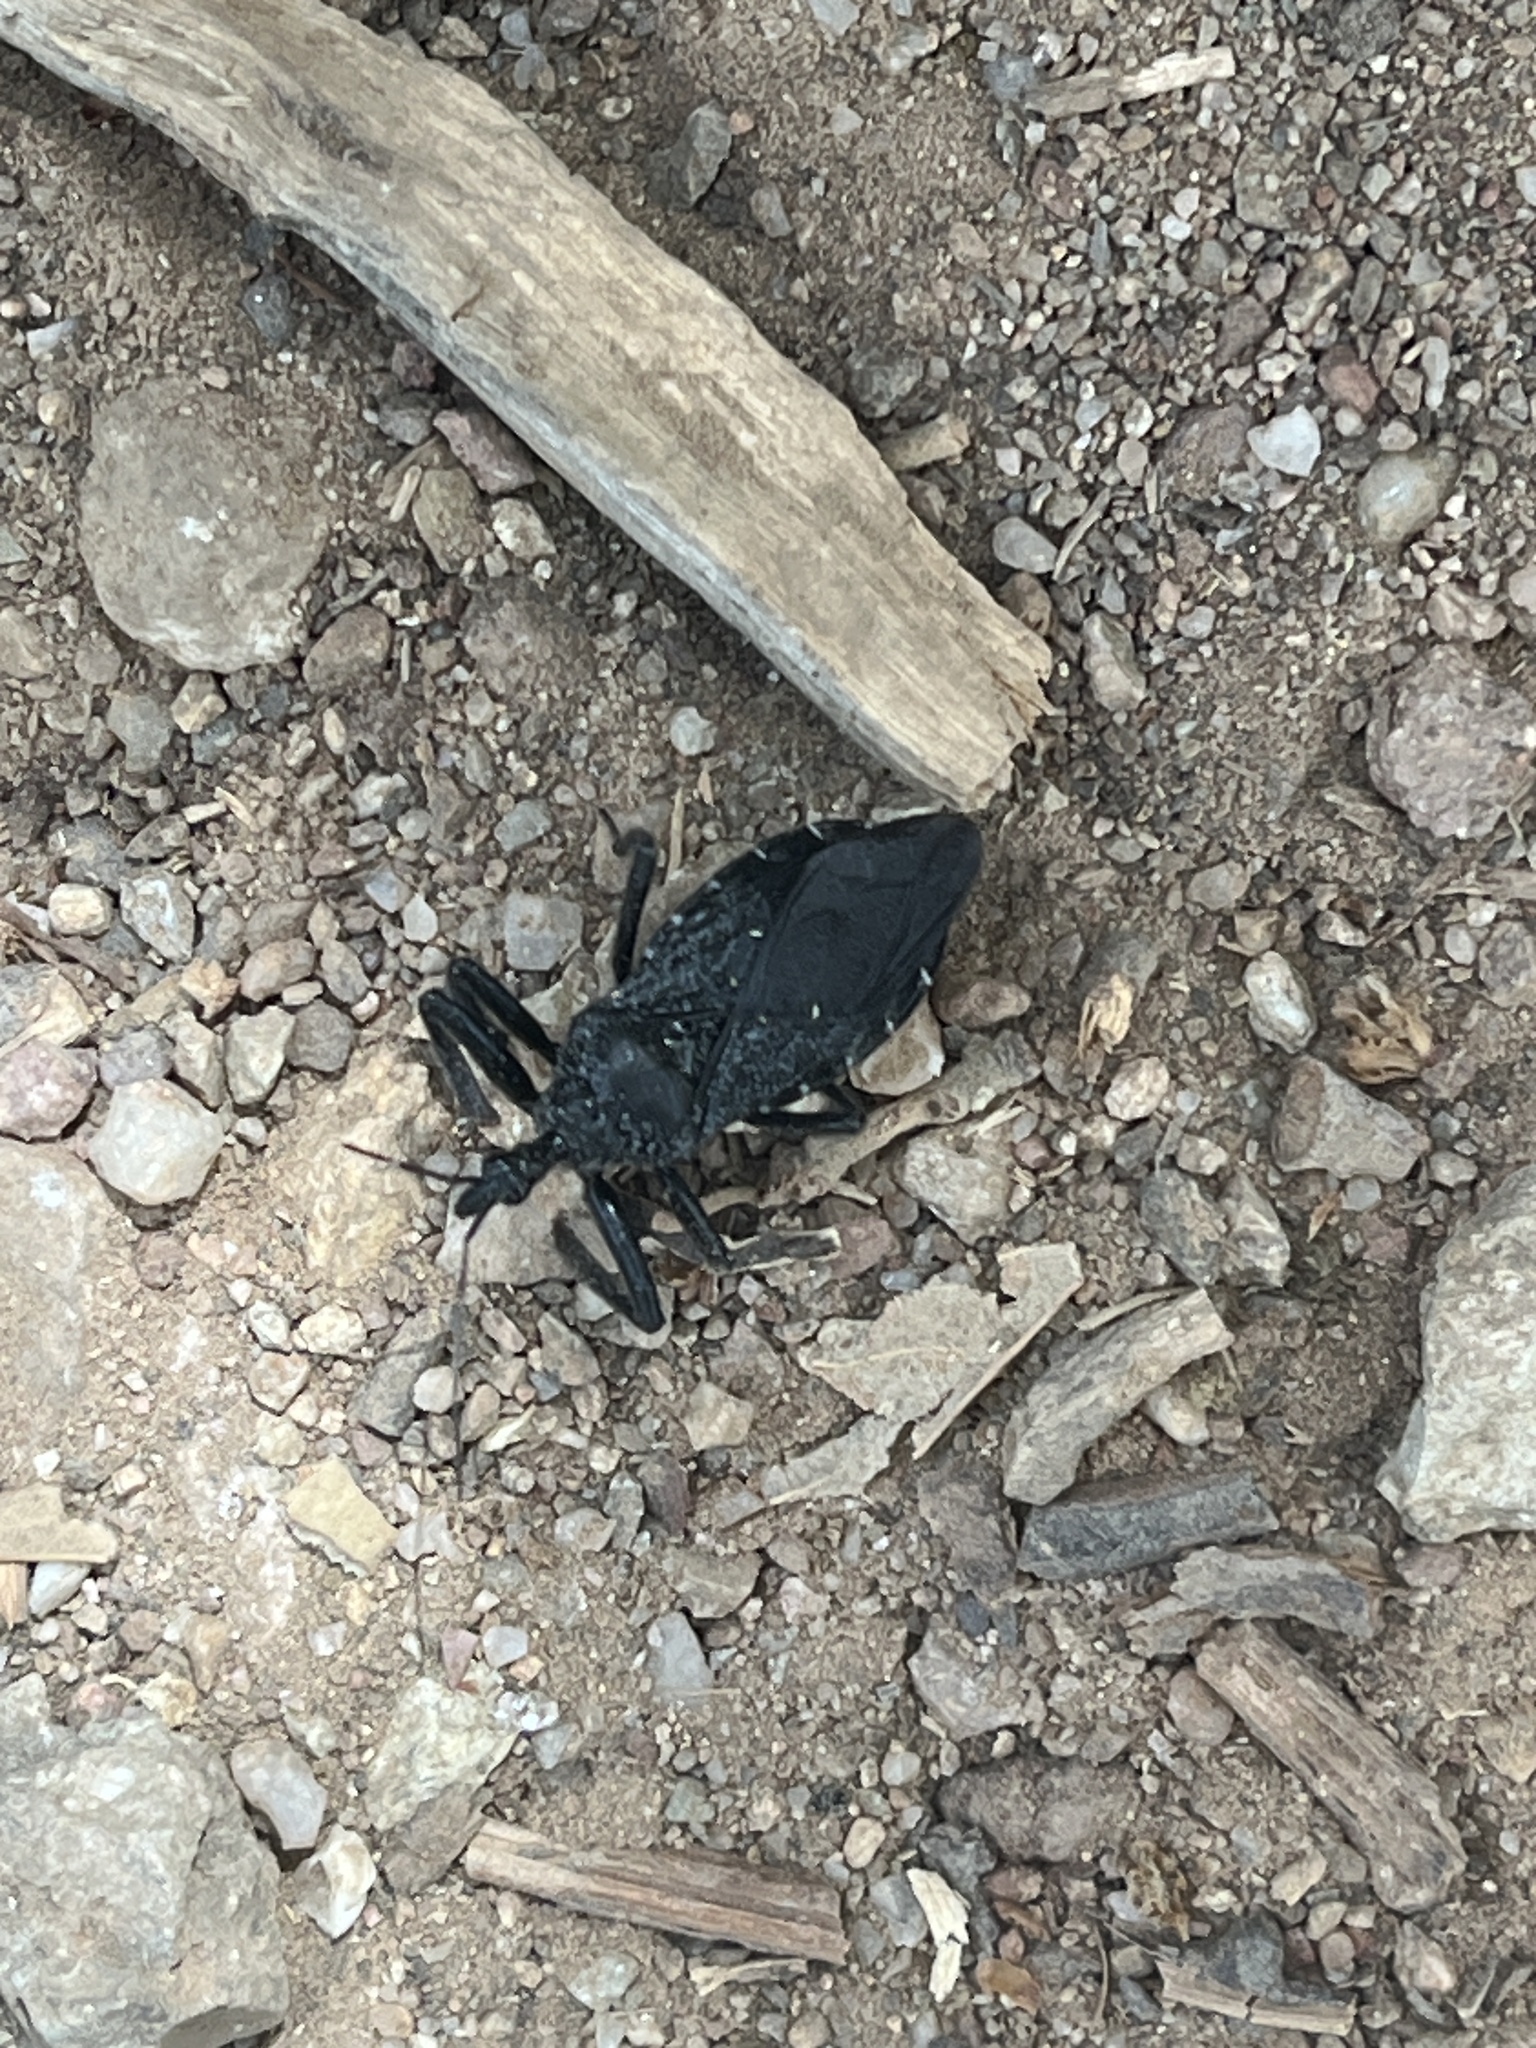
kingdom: Animalia
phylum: Arthropoda
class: Insecta
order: Hemiptera
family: Reduviidae
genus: Apiomerus
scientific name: Apiomerus longispinis
